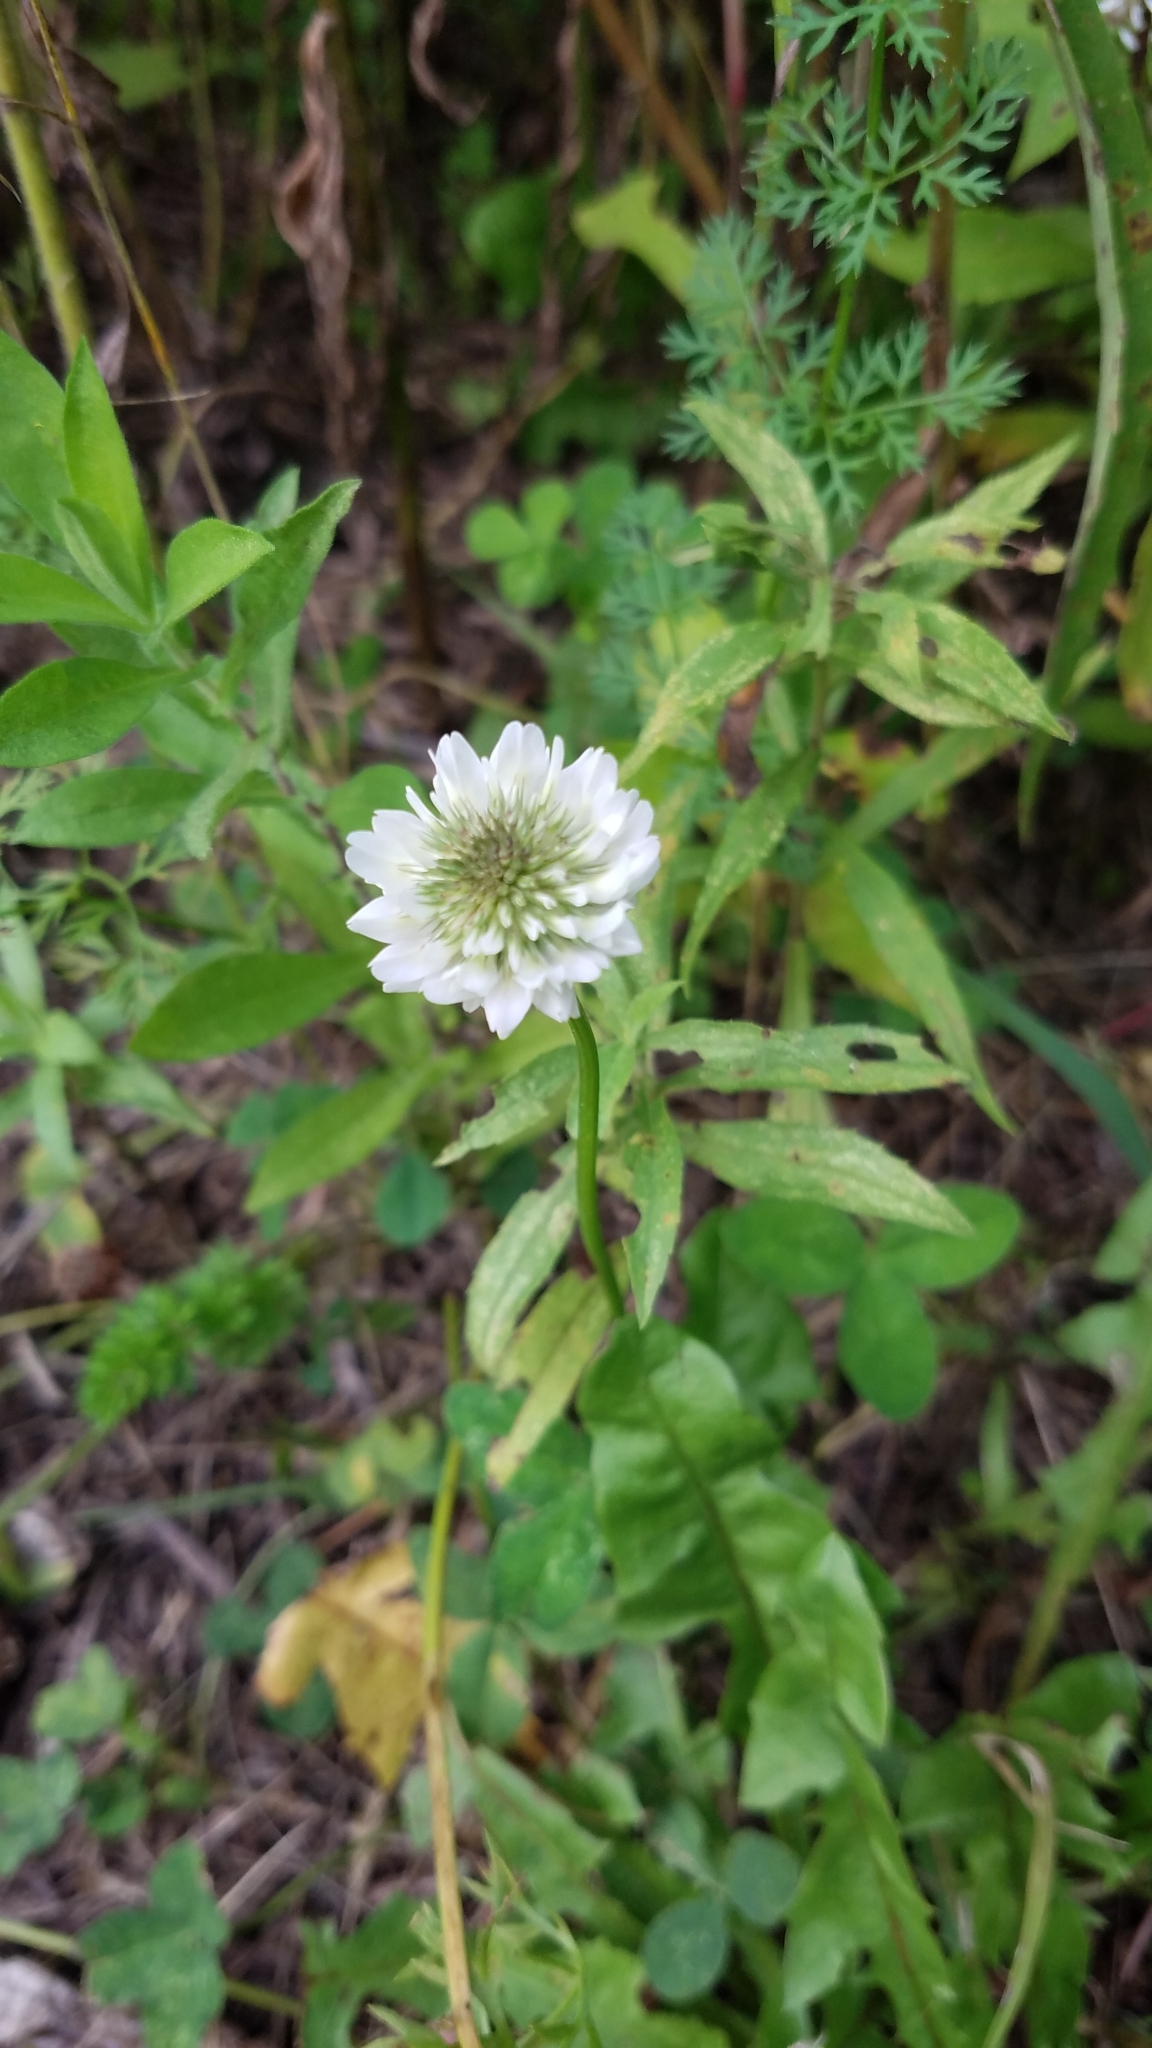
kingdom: Plantae
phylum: Tracheophyta
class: Magnoliopsida
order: Fabales
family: Fabaceae
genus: Trifolium
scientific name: Trifolium repens
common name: White clover
